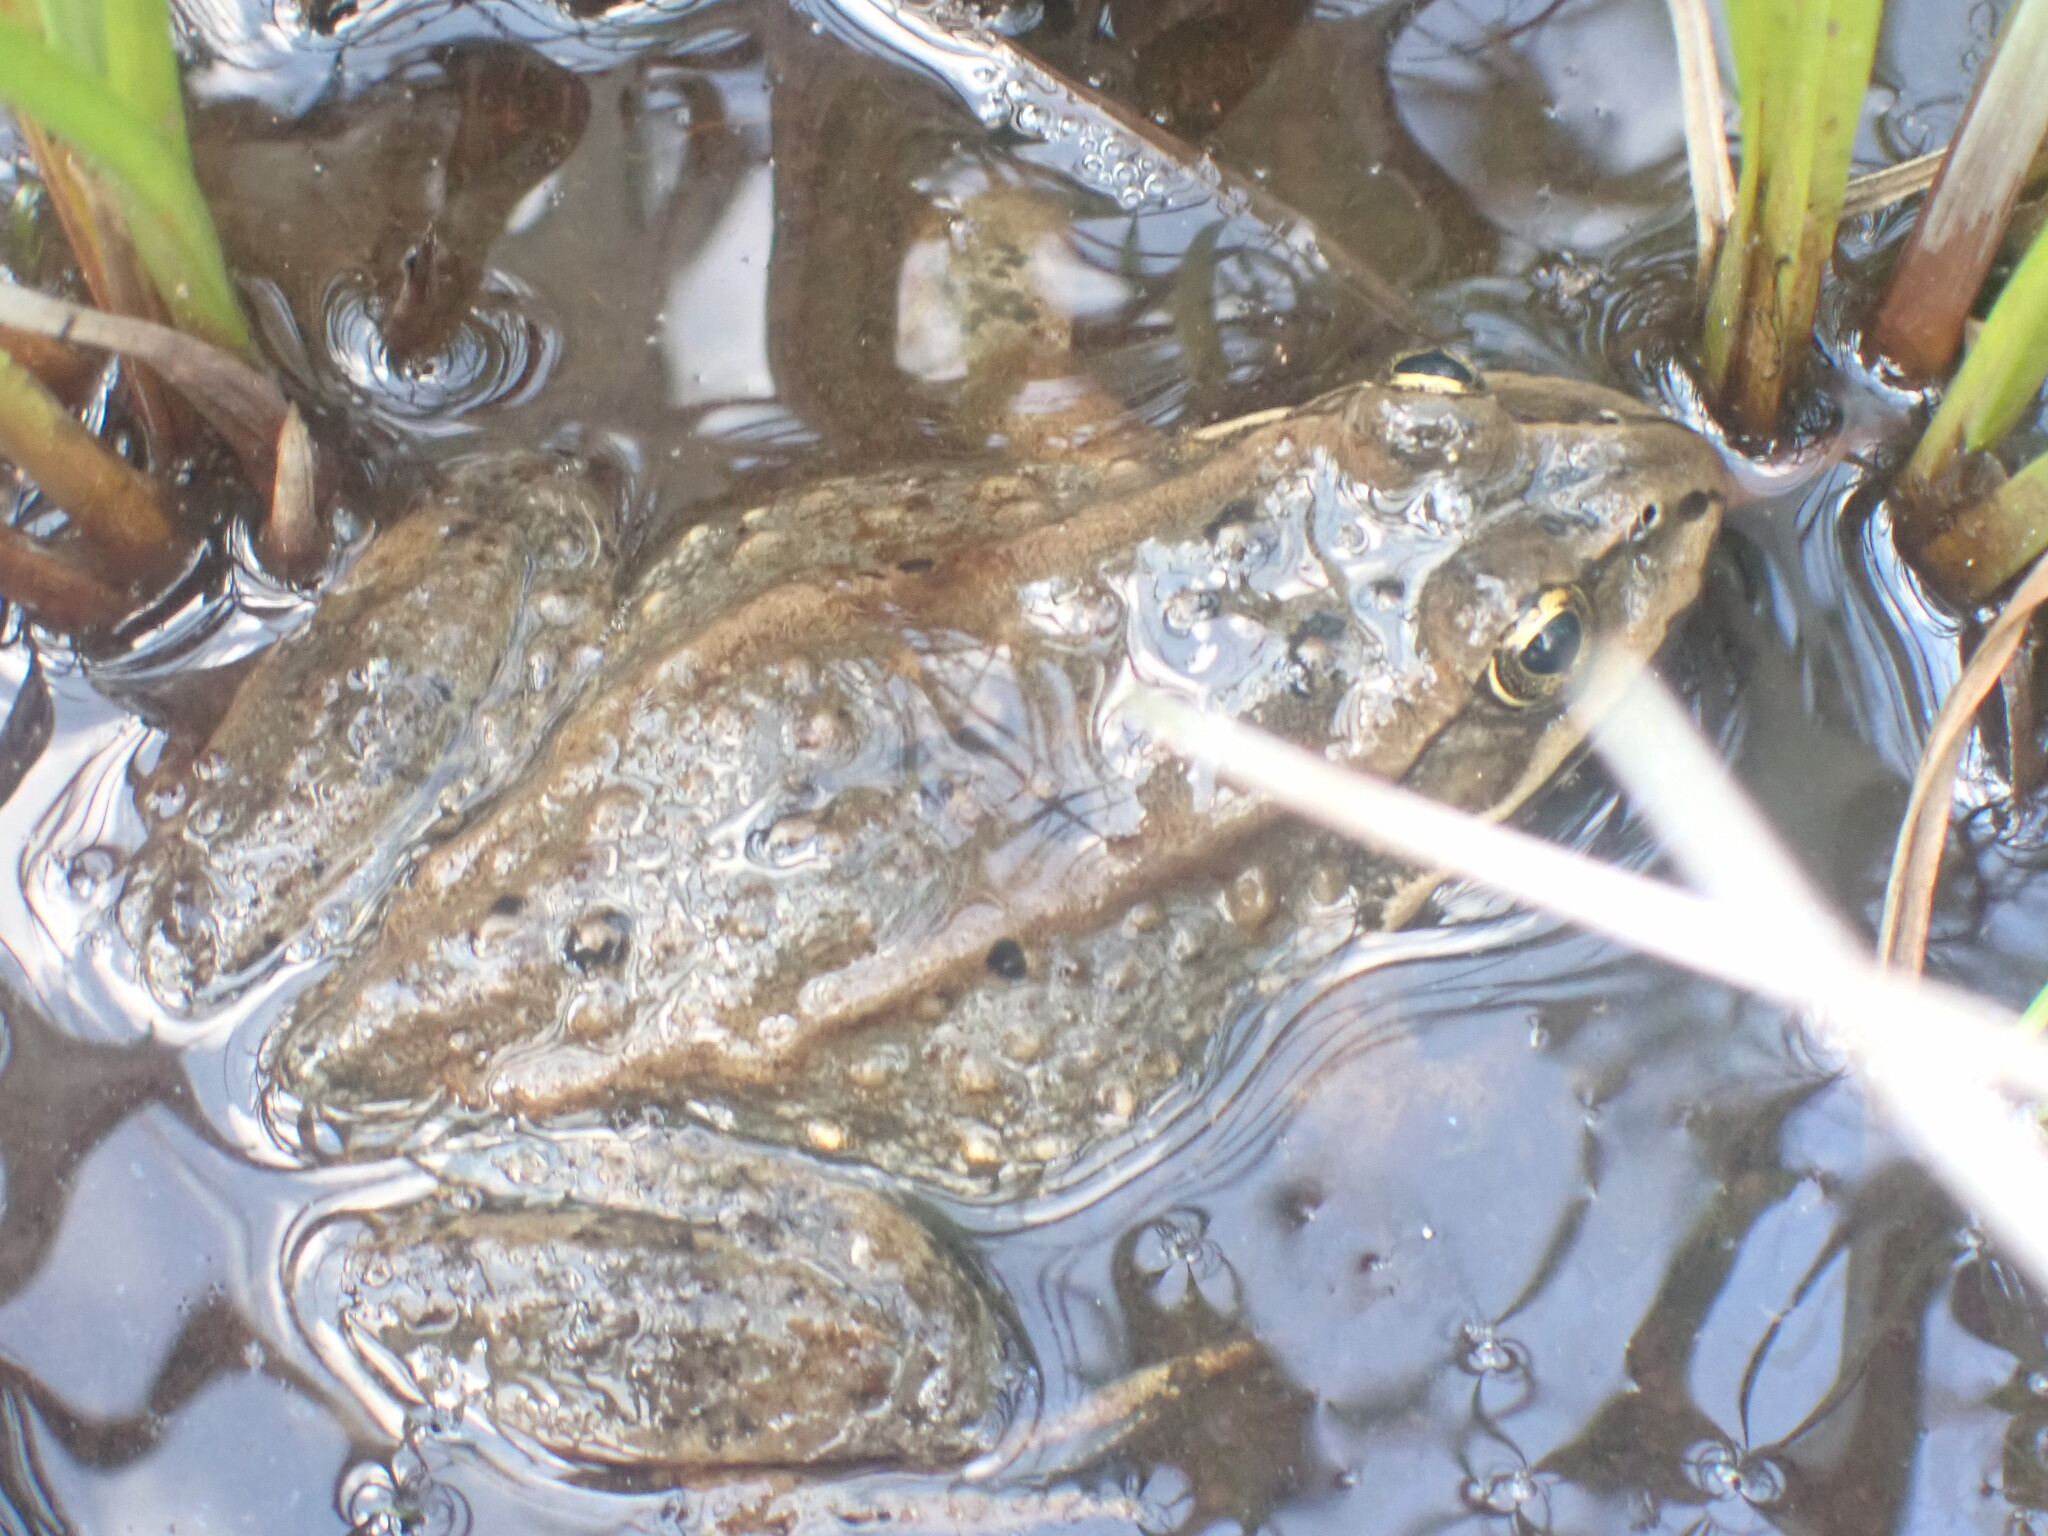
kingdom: Animalia
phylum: Chordata
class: Amphibia
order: Anura
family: Ranidae
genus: Rana
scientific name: Rana luteiventris
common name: Columbia spotted frog
